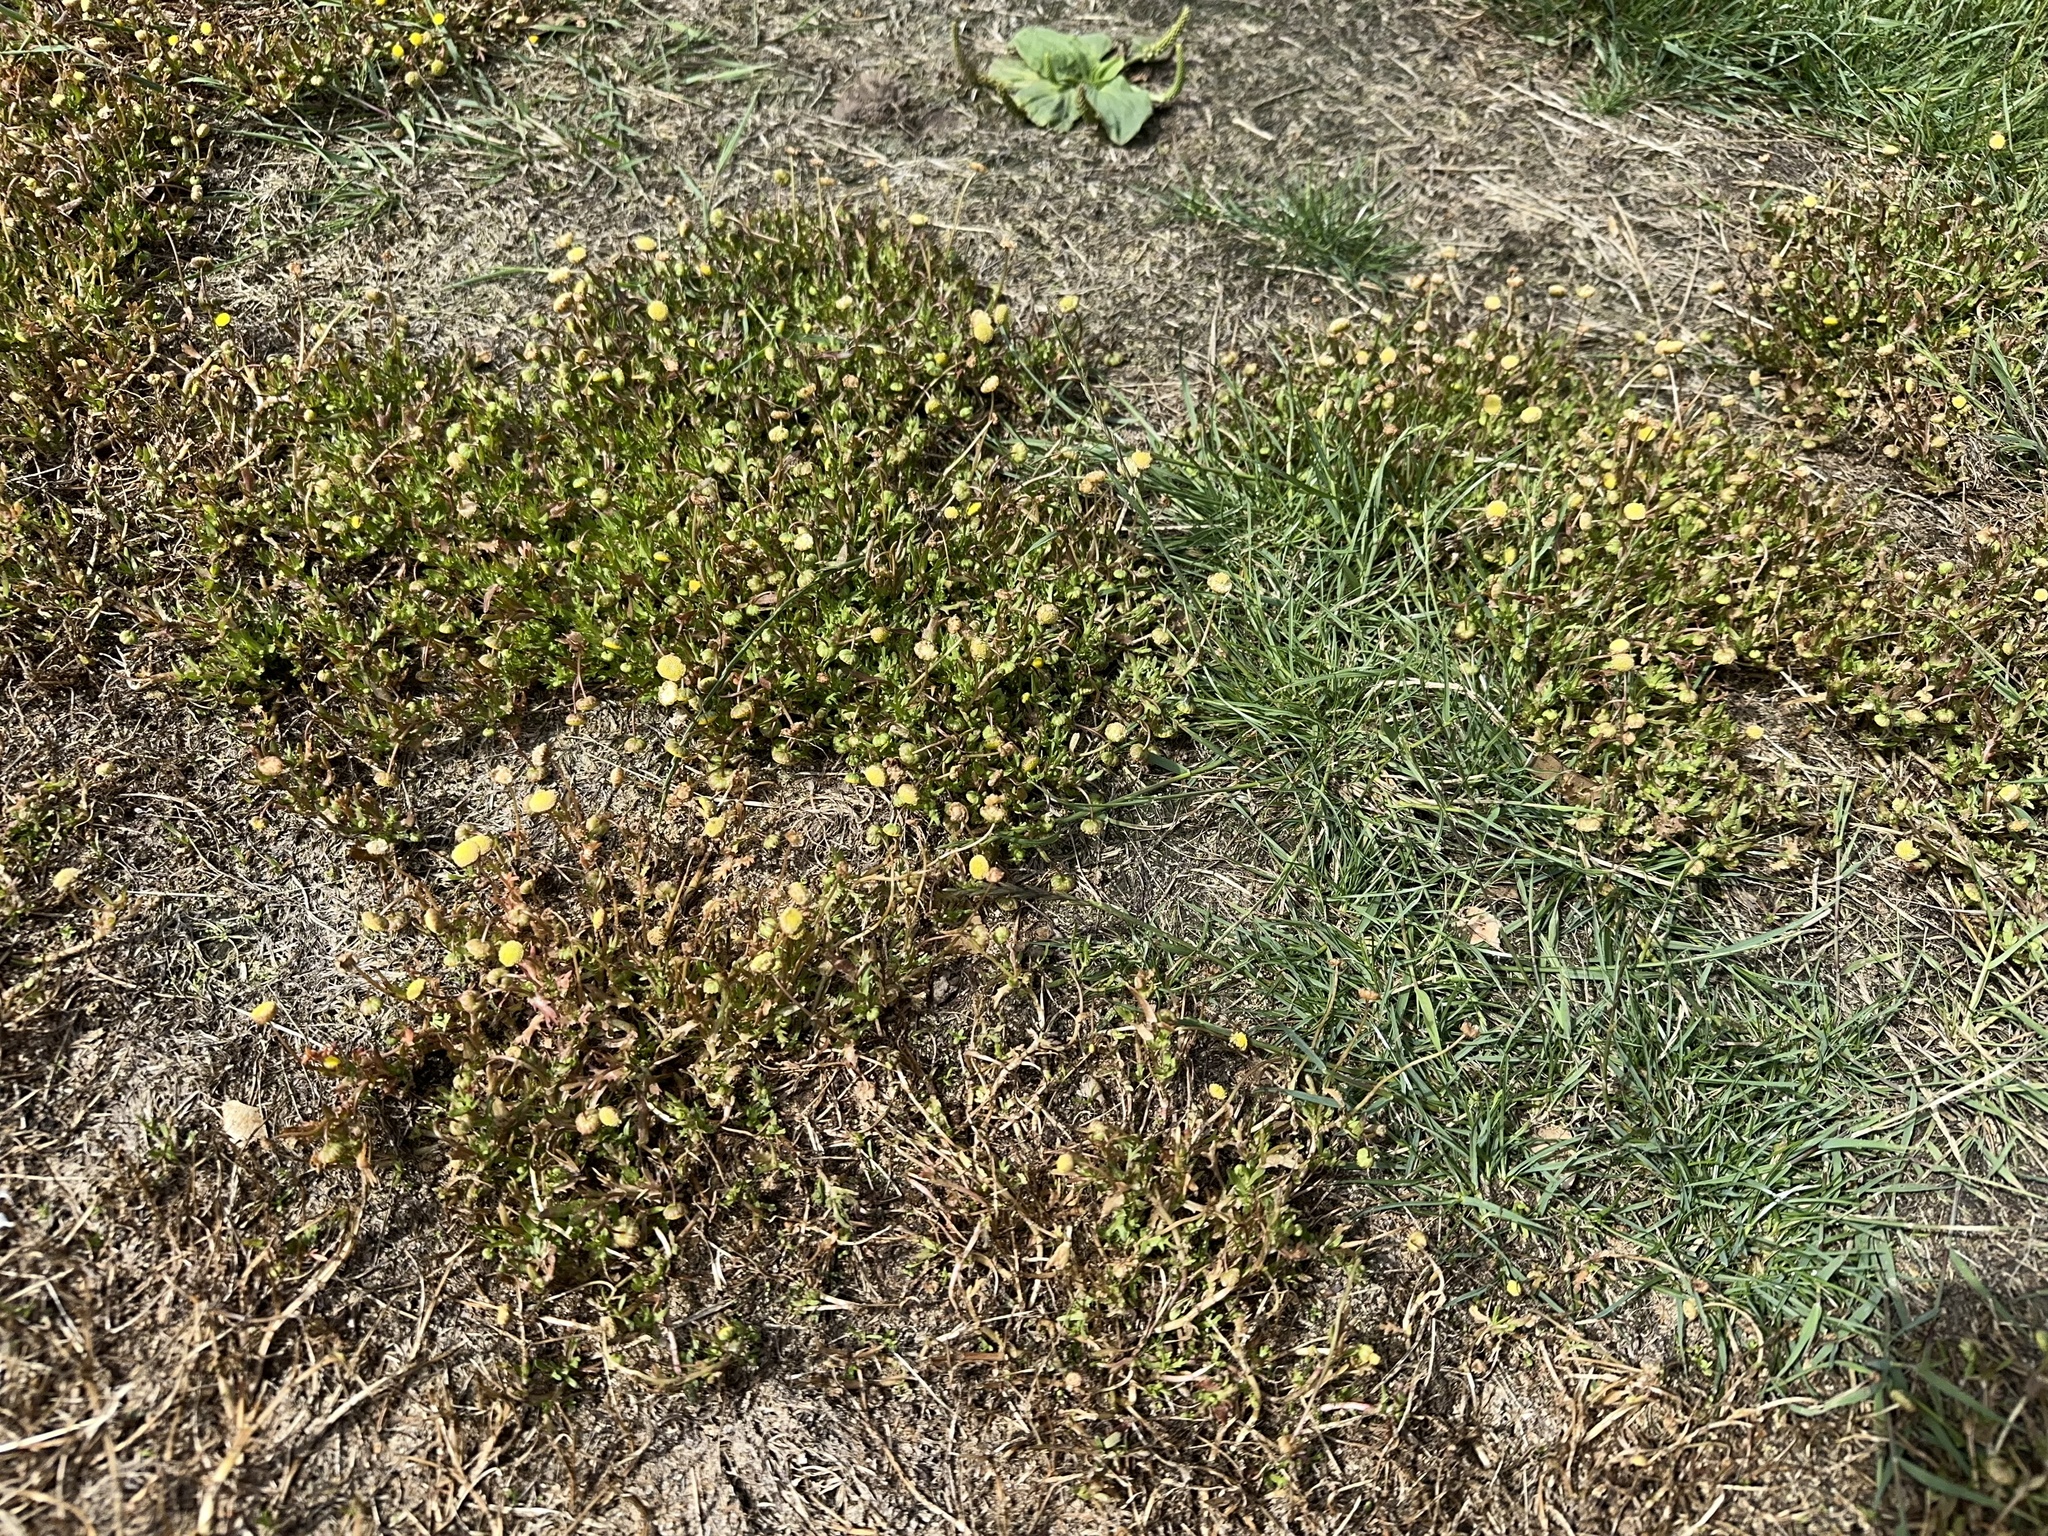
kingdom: Plantae
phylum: Tracheophyta
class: Magnoliopsida
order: Asterales
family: Asteraceae
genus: Cotula
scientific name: Cotula coronopifolia
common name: Buttonweed
